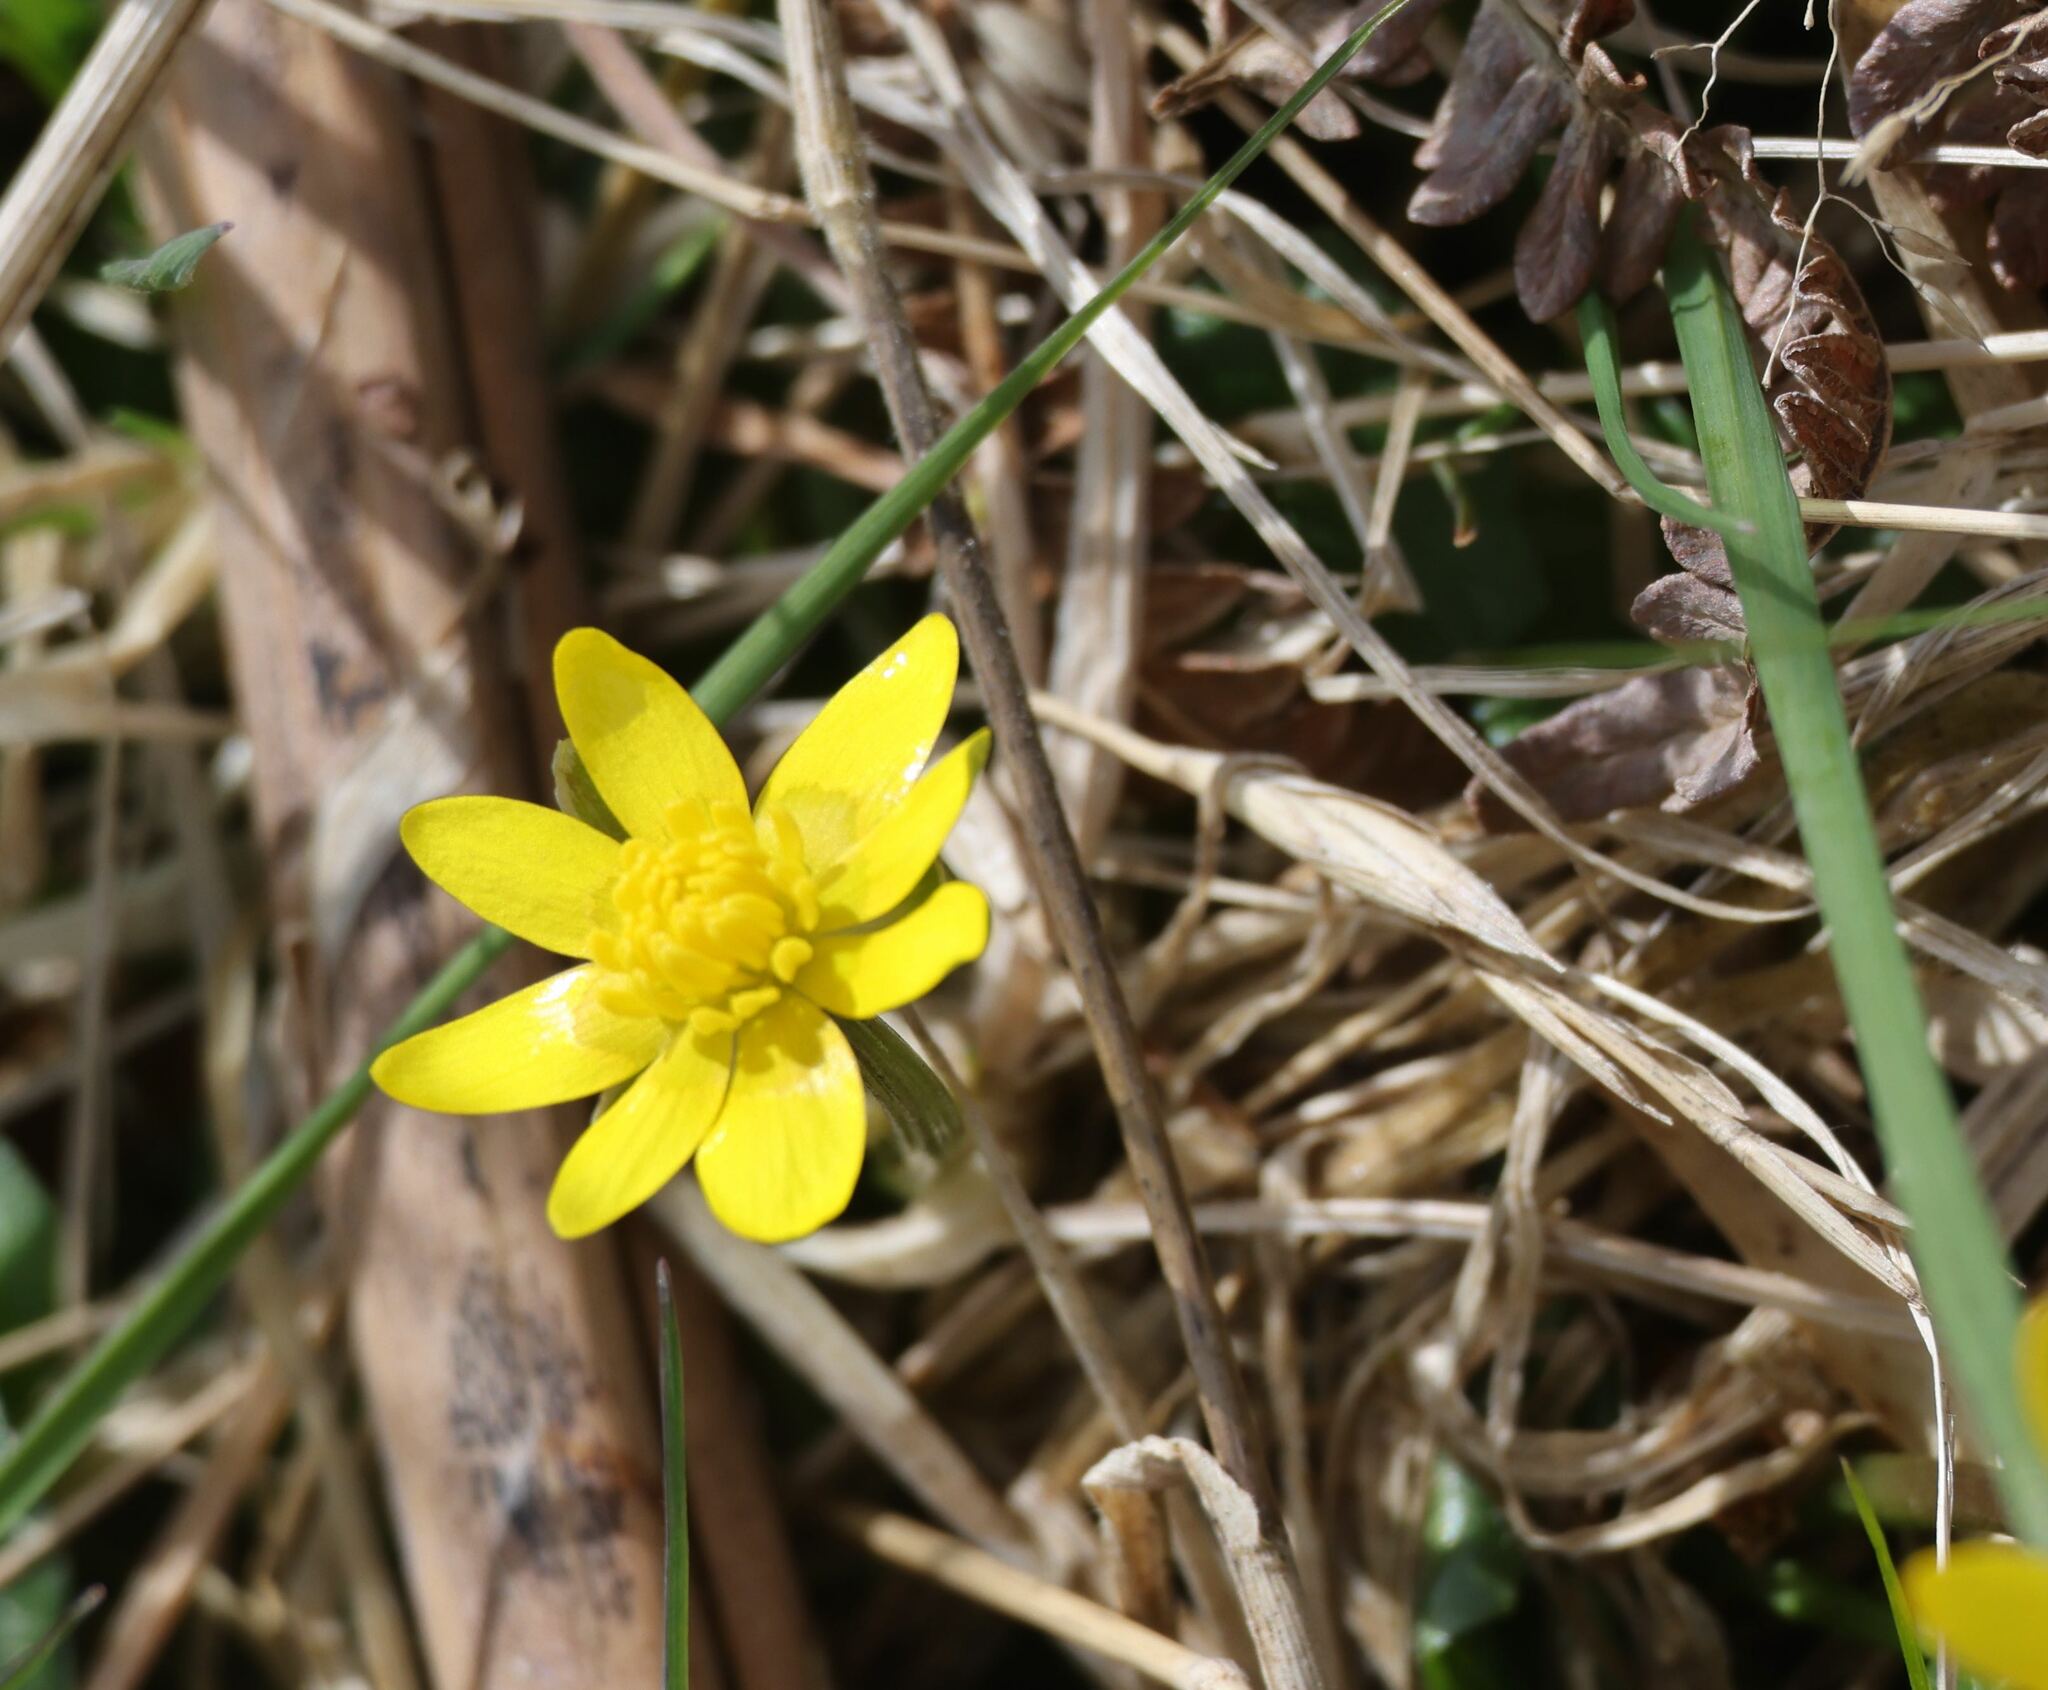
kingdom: Plantae
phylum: Tracheophyta
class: Magnoliopsida
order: Ranunculales
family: Ranunculaceae
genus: Ficaria
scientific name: Ficaria verna
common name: Lesser celandine
